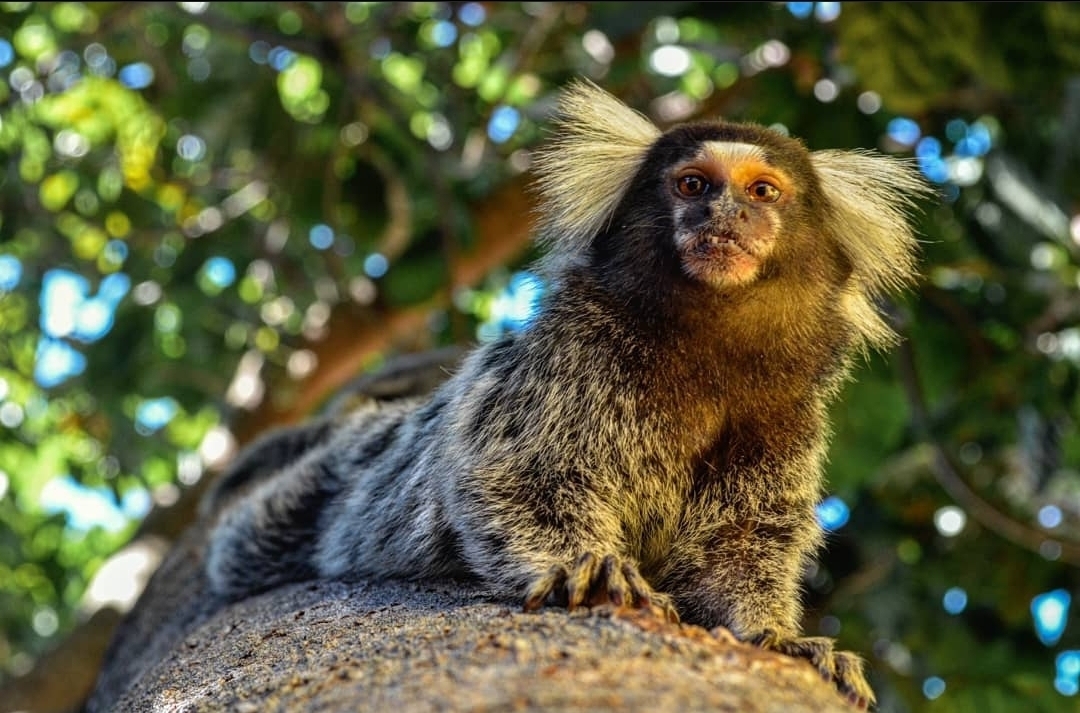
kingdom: Animalia
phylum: Chordata
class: Mammalia
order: Primates
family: Callitrichidae
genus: Callithrix
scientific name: Callithrix jacchus
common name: Common marmoset
